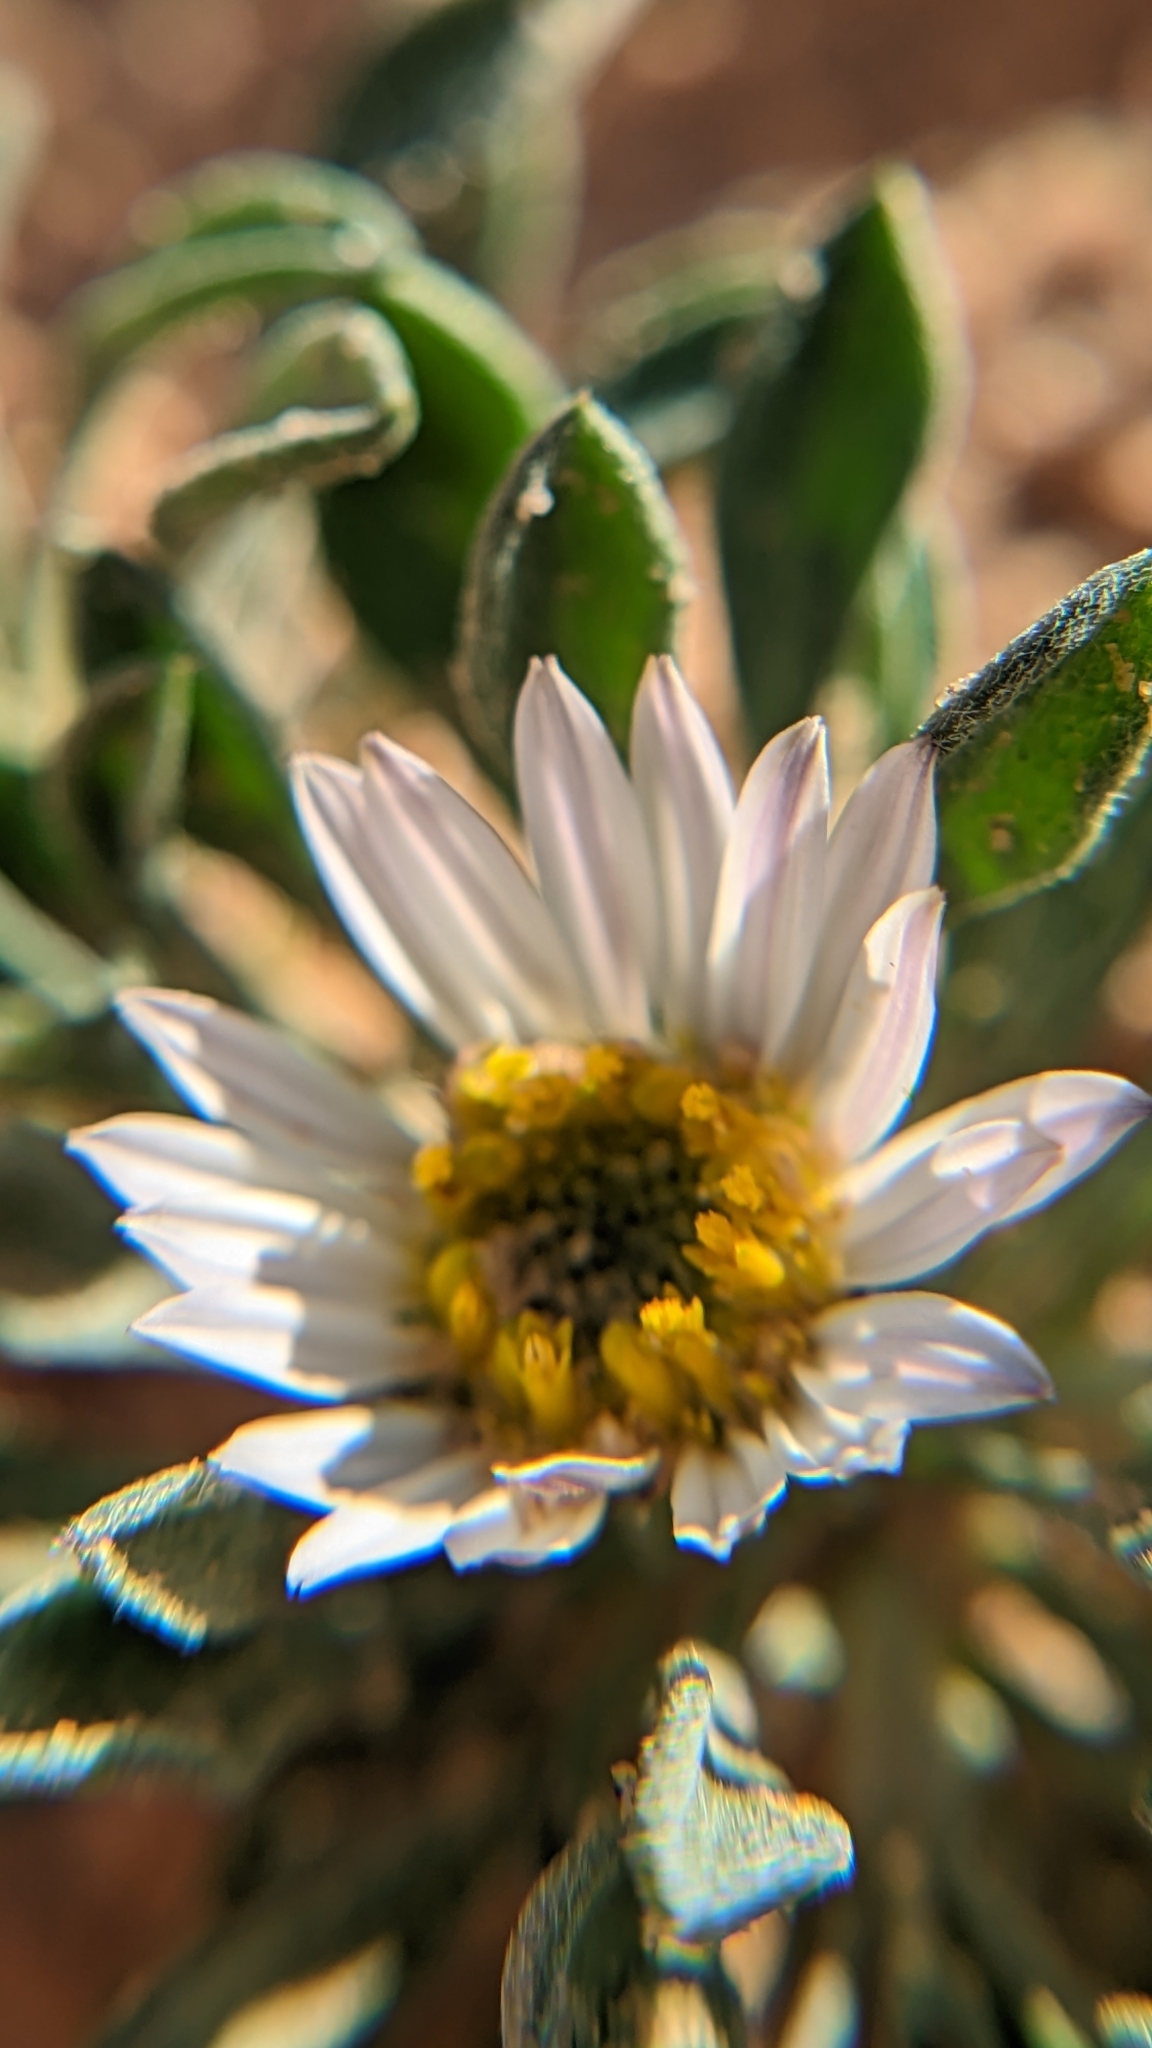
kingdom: Plantae
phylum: Tracheophyta
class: Magnoliopsida
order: Asterales
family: Asteraceae
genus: Townsendia
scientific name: Townsendia incana
